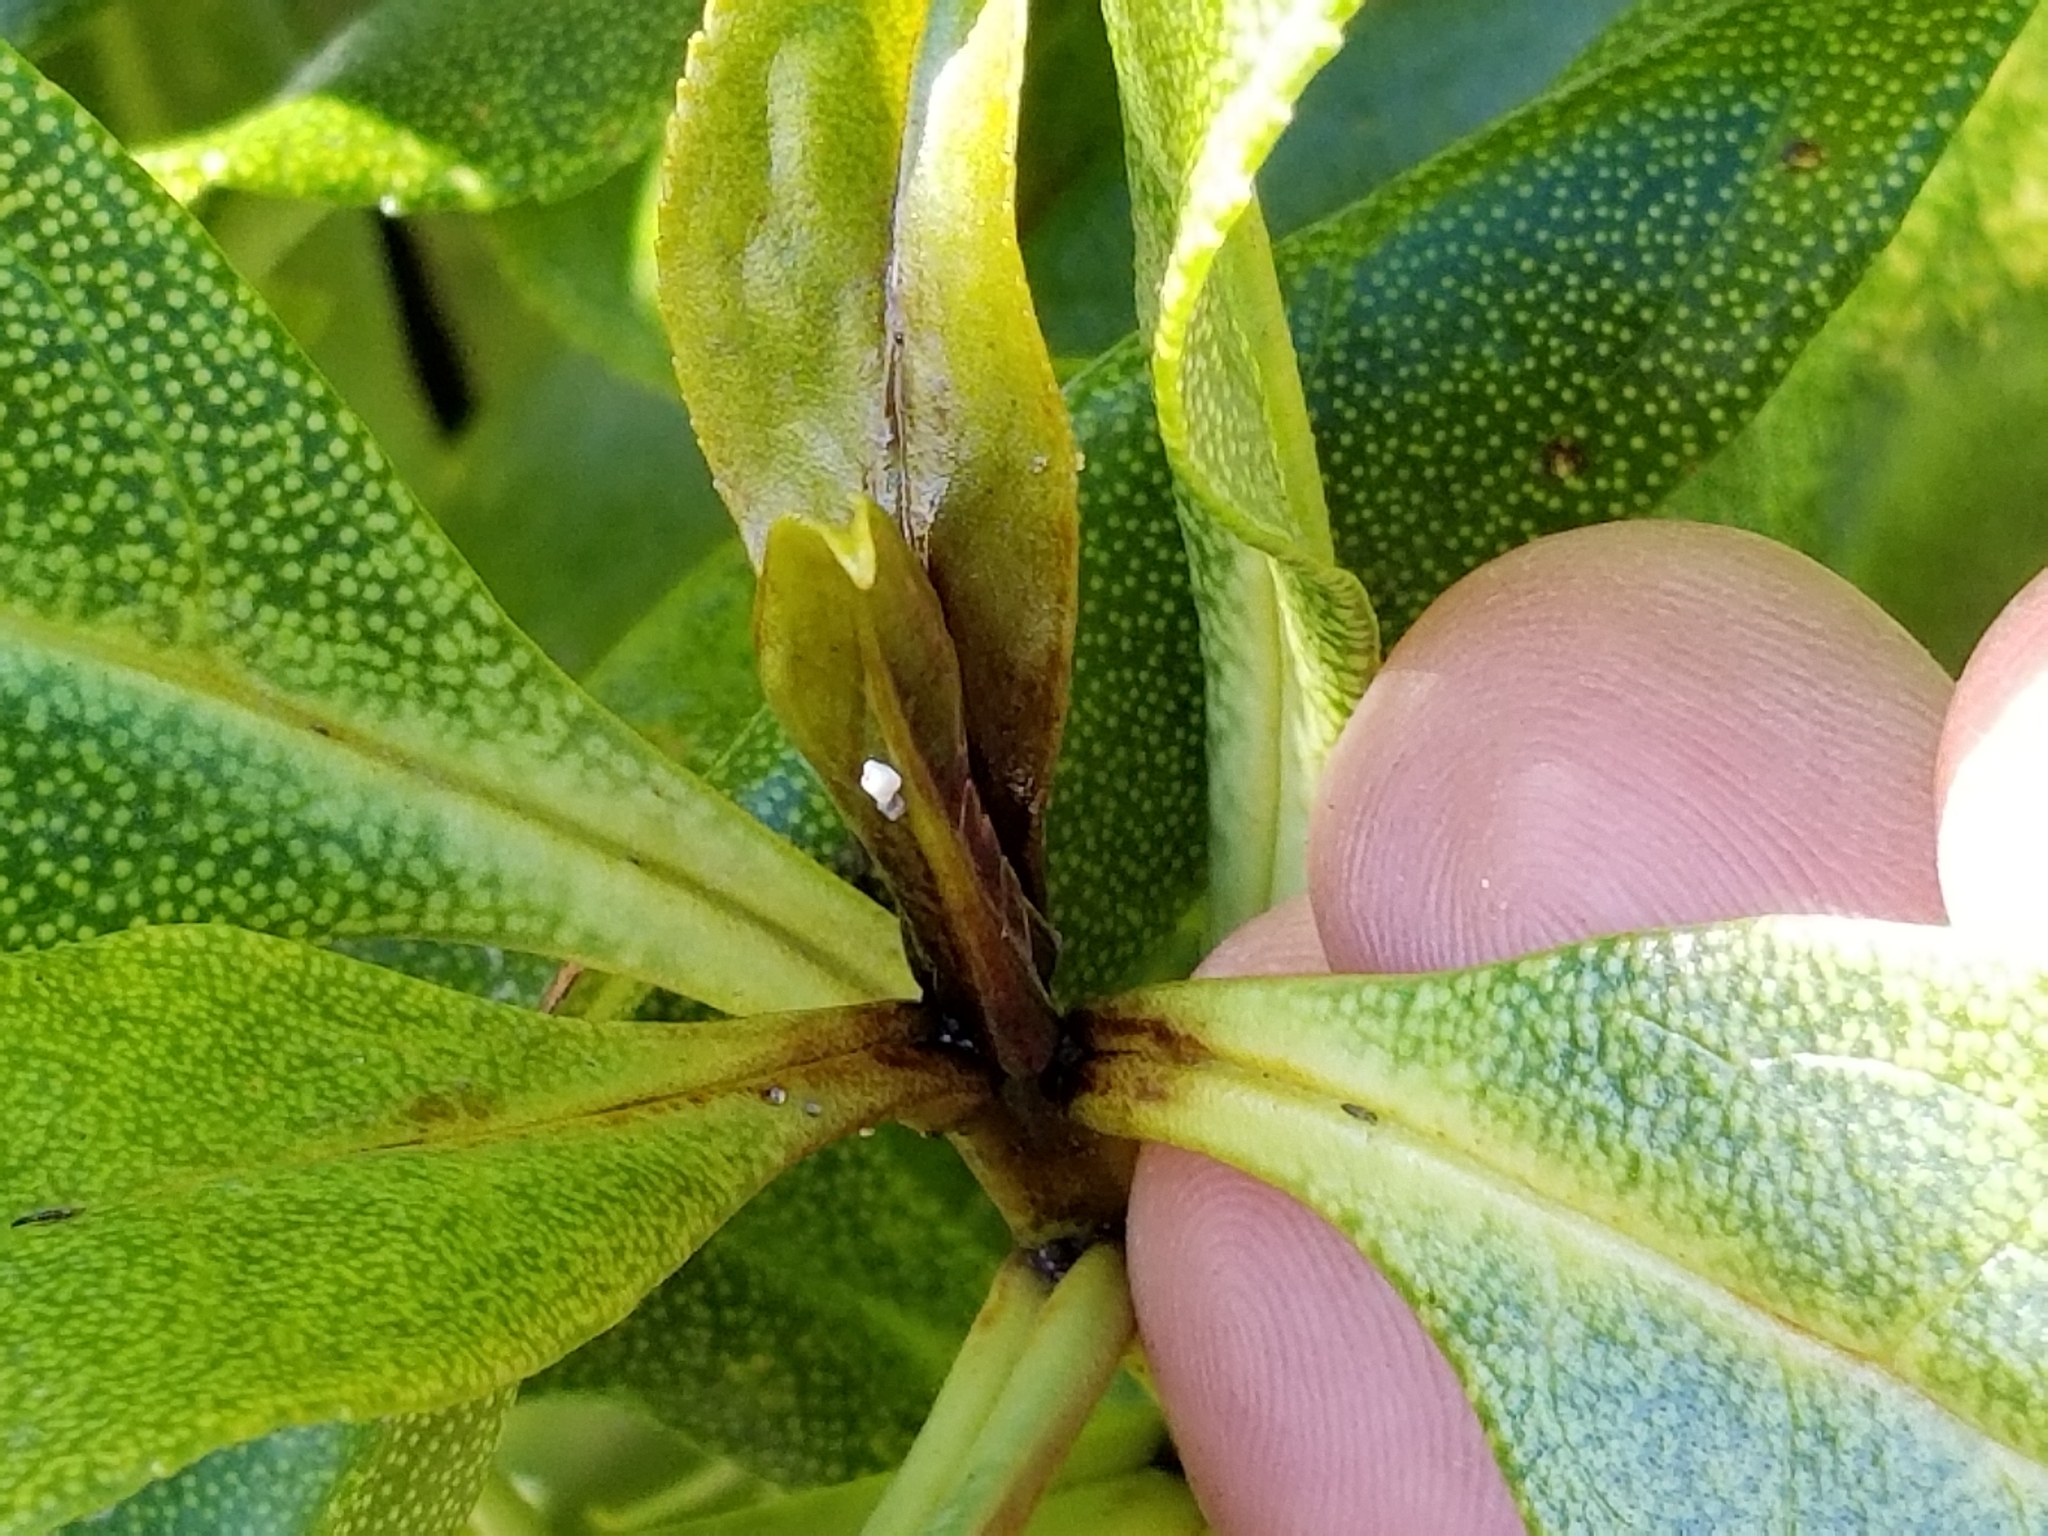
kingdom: Plantae
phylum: Tracheophyta
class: Magnoliopsida
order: Lamiales
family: Scrophulariaceae
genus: Myoporum
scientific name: Myoporum laetum
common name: Ngaio tree
